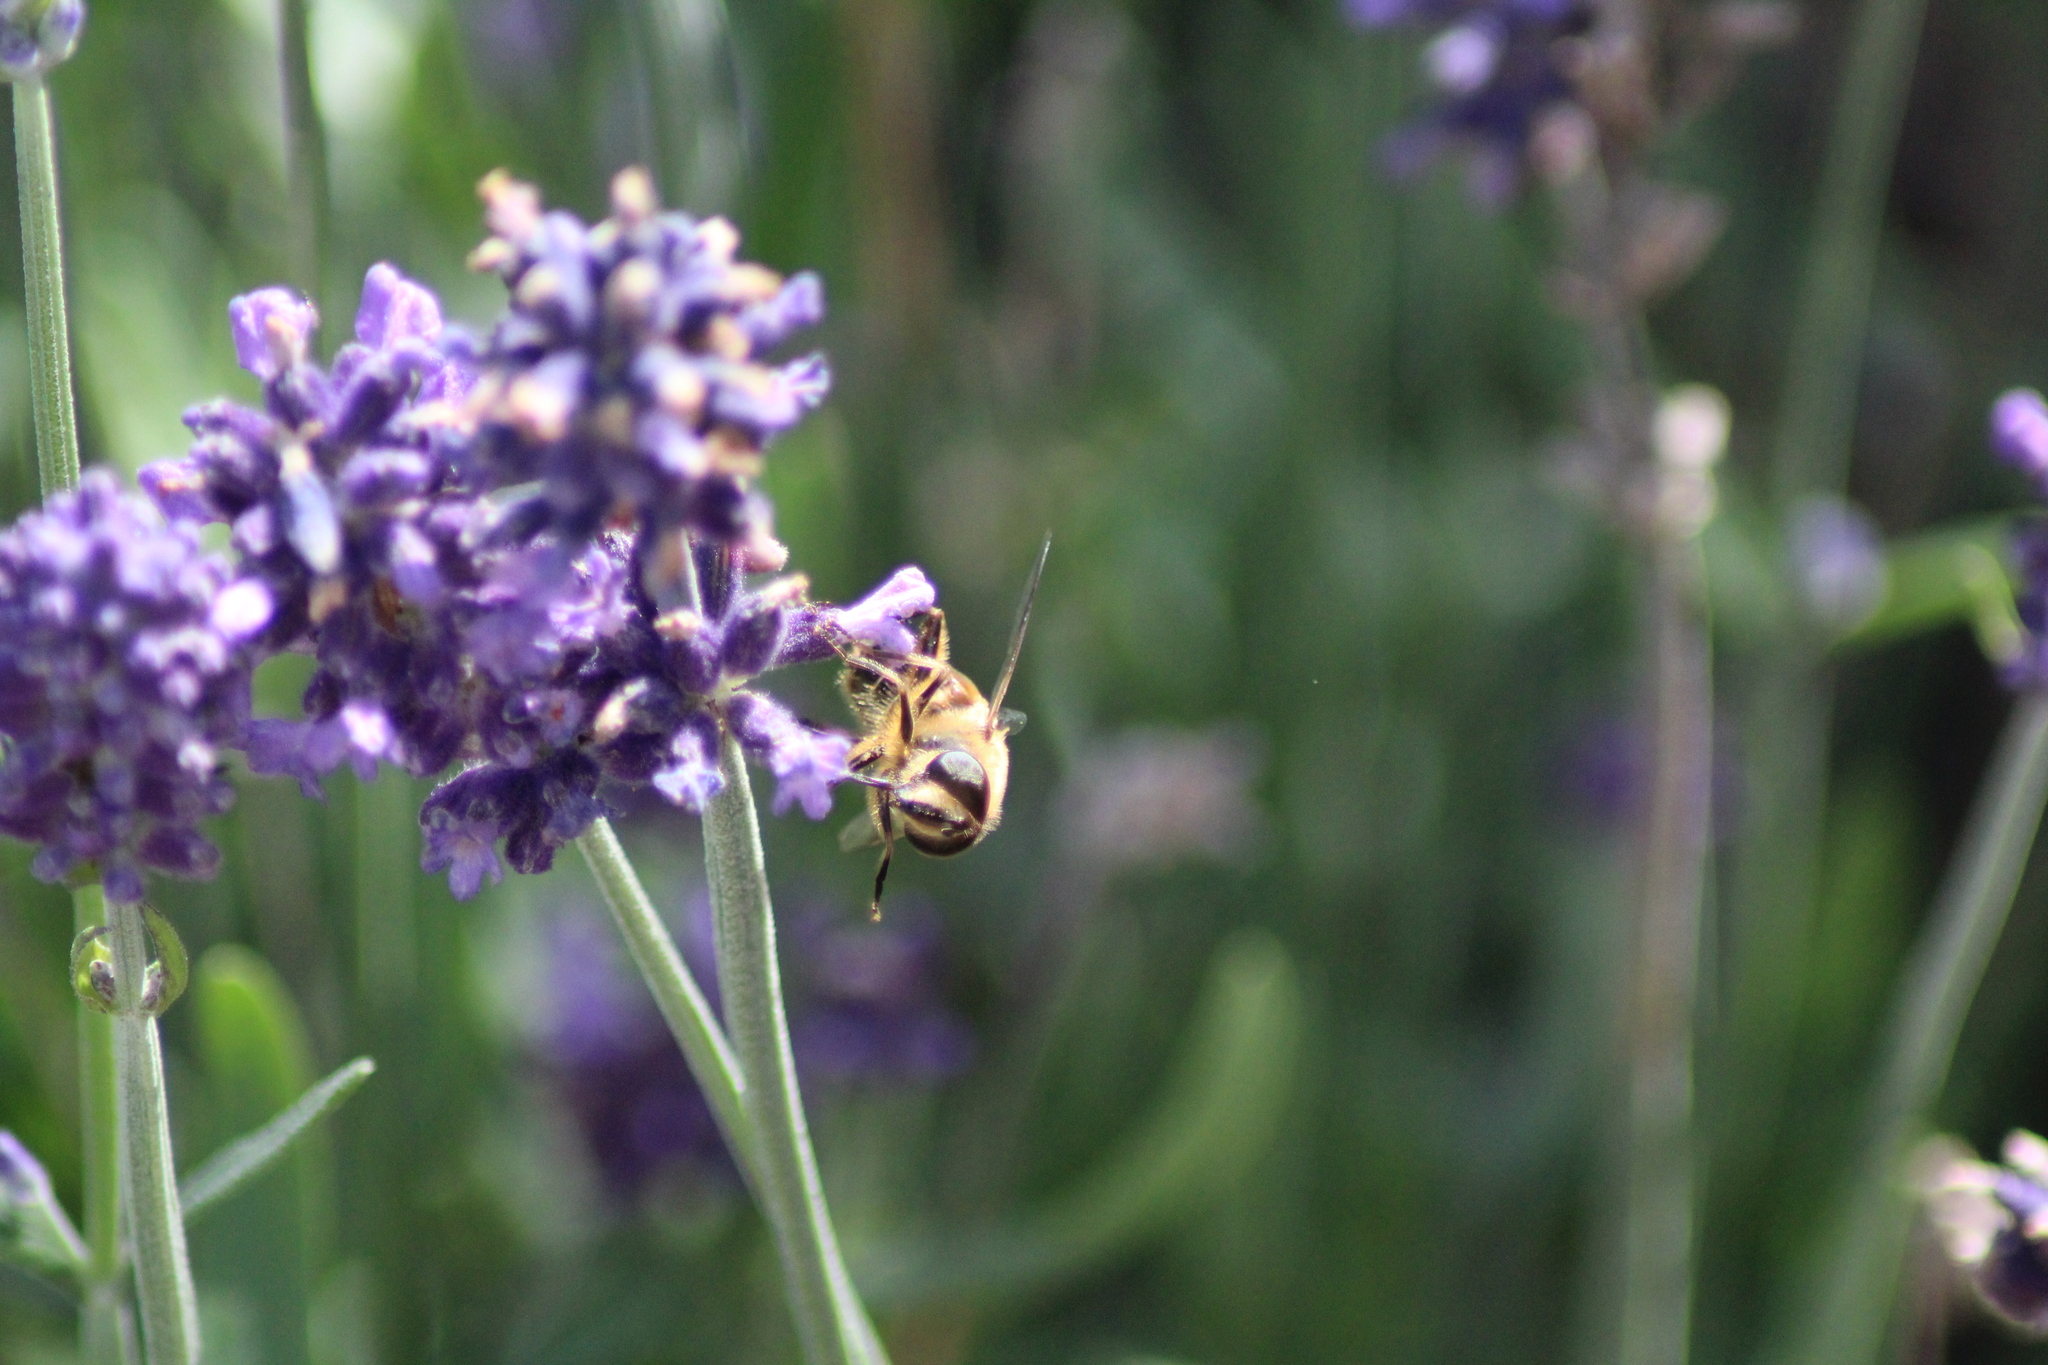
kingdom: Animalia
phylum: Arthropoda
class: Insecta
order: Diptera
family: Syrphidae
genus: Eristalis
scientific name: Eristalis tenax
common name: Drone fly
